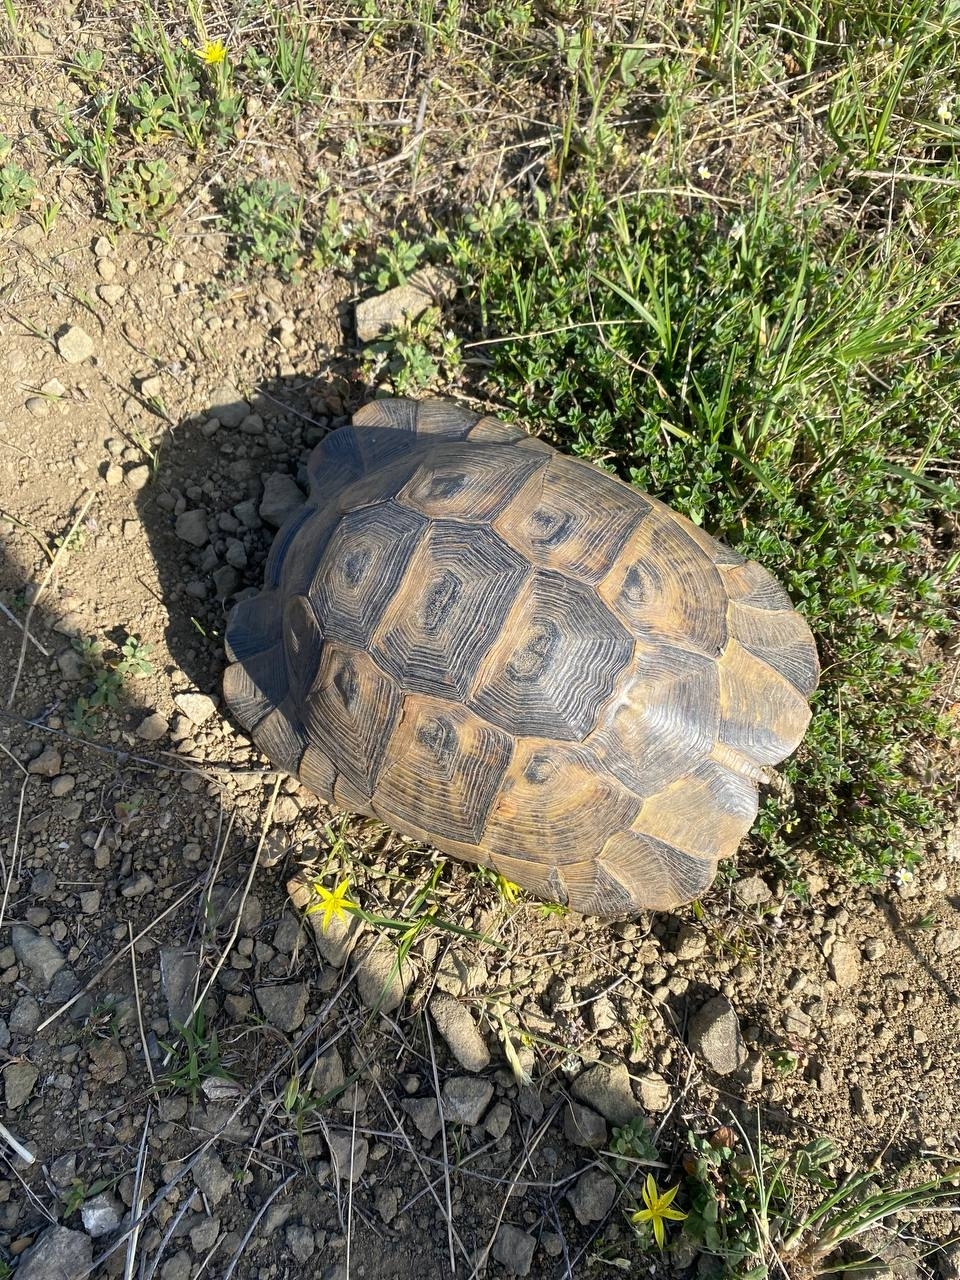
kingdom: Animalia
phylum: Chordata
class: Testudines
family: Testudinidae
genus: Testudo
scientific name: Testudo graeca
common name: Common tortoise
